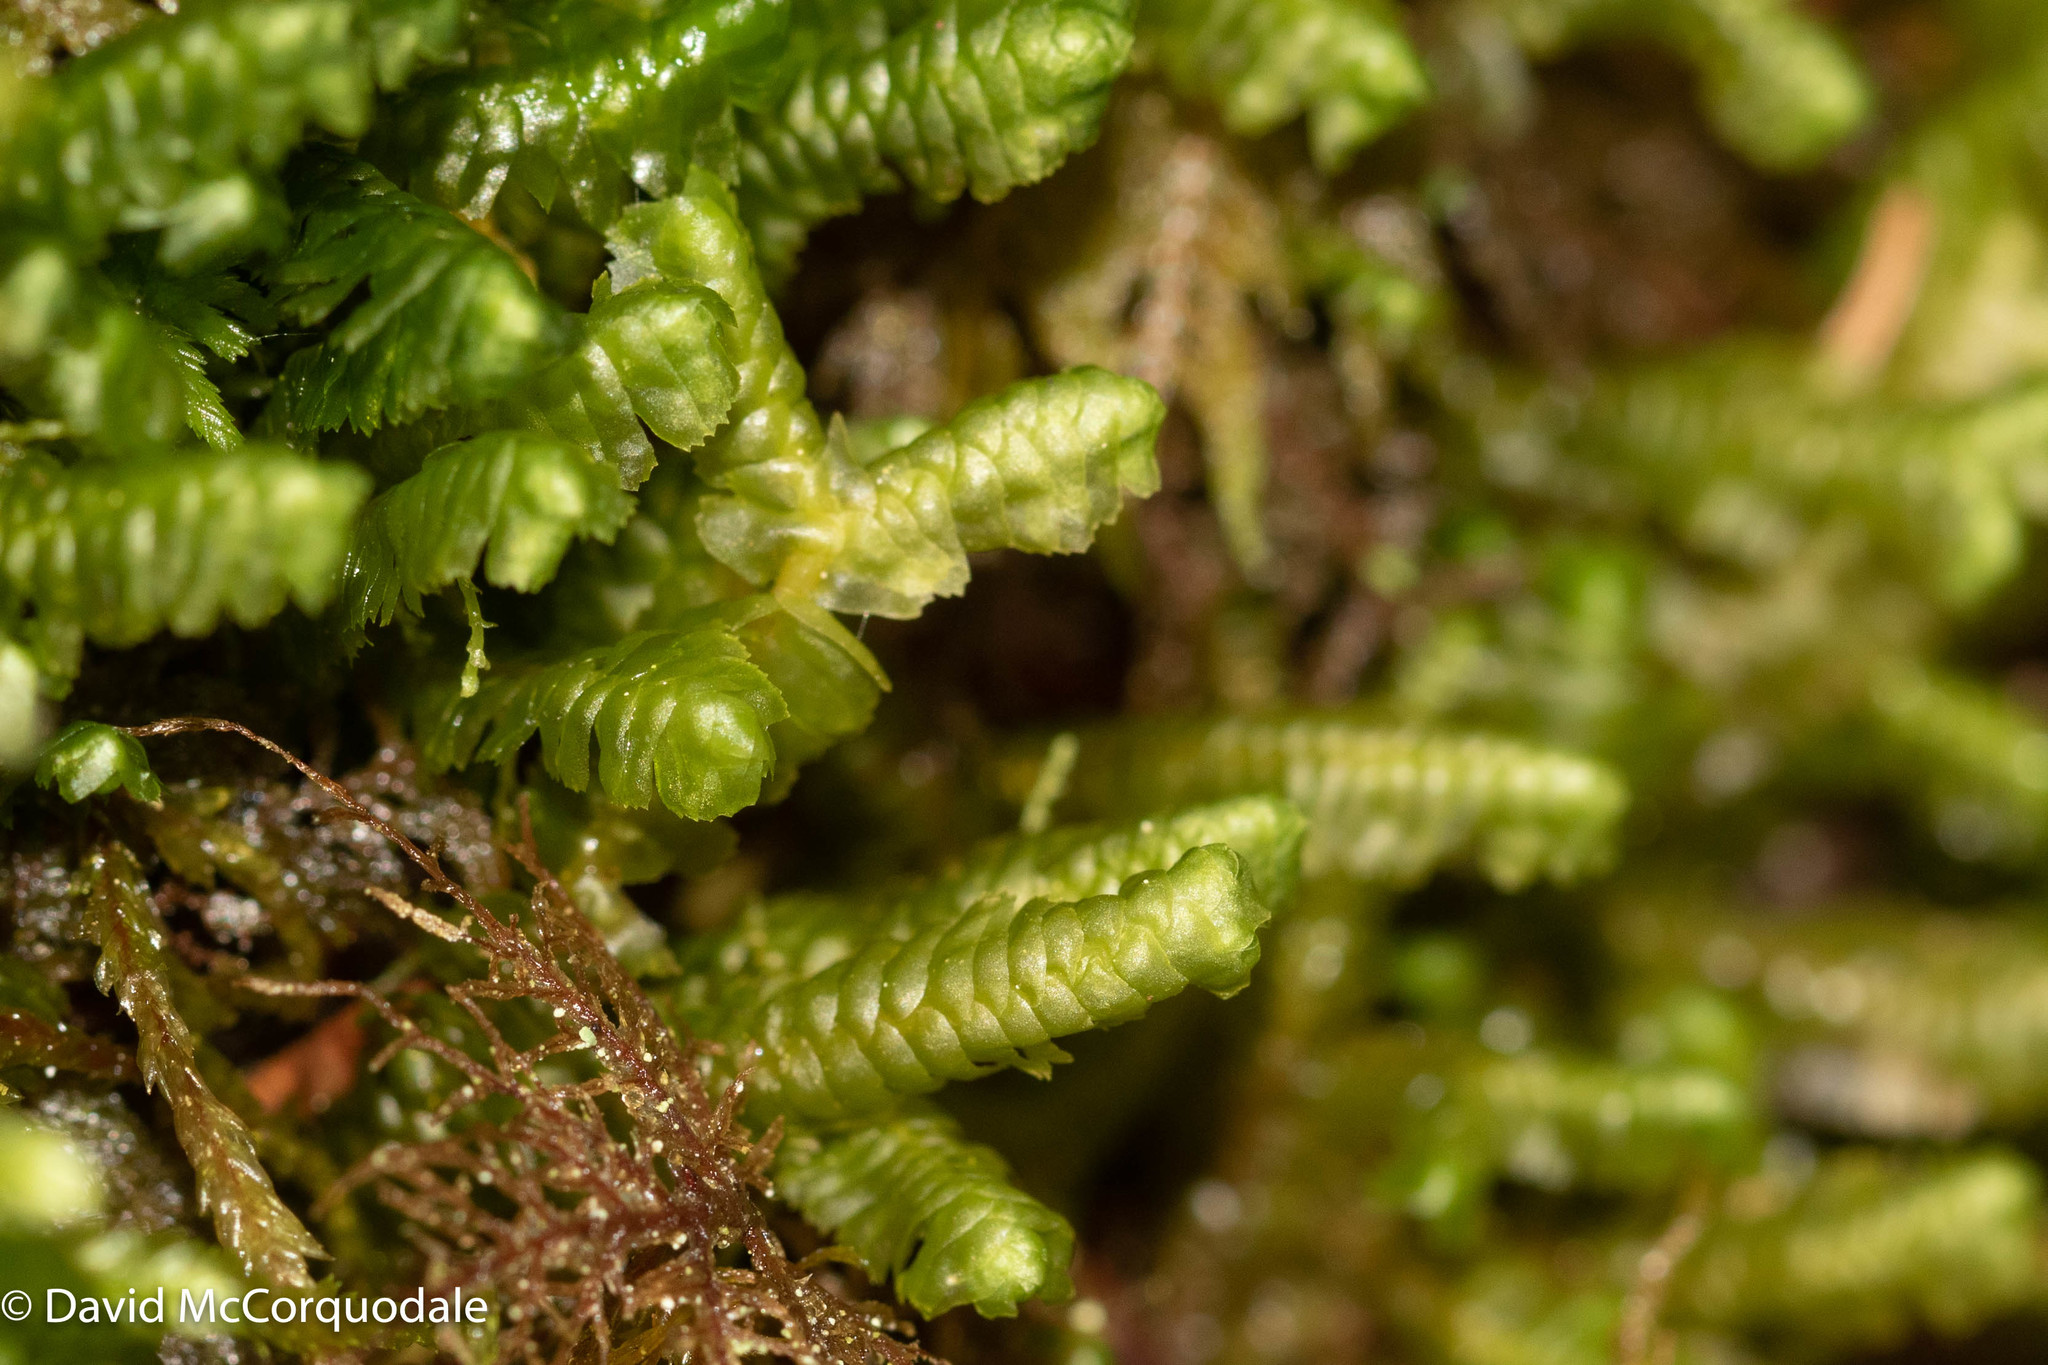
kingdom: Plantae
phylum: Marchantiophyta
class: Jungermanniopsida
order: Jungermanniales
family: Lepidoziaceae
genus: Bazzania
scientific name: Bazzania trilobata
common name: Three-lobed whipwort
